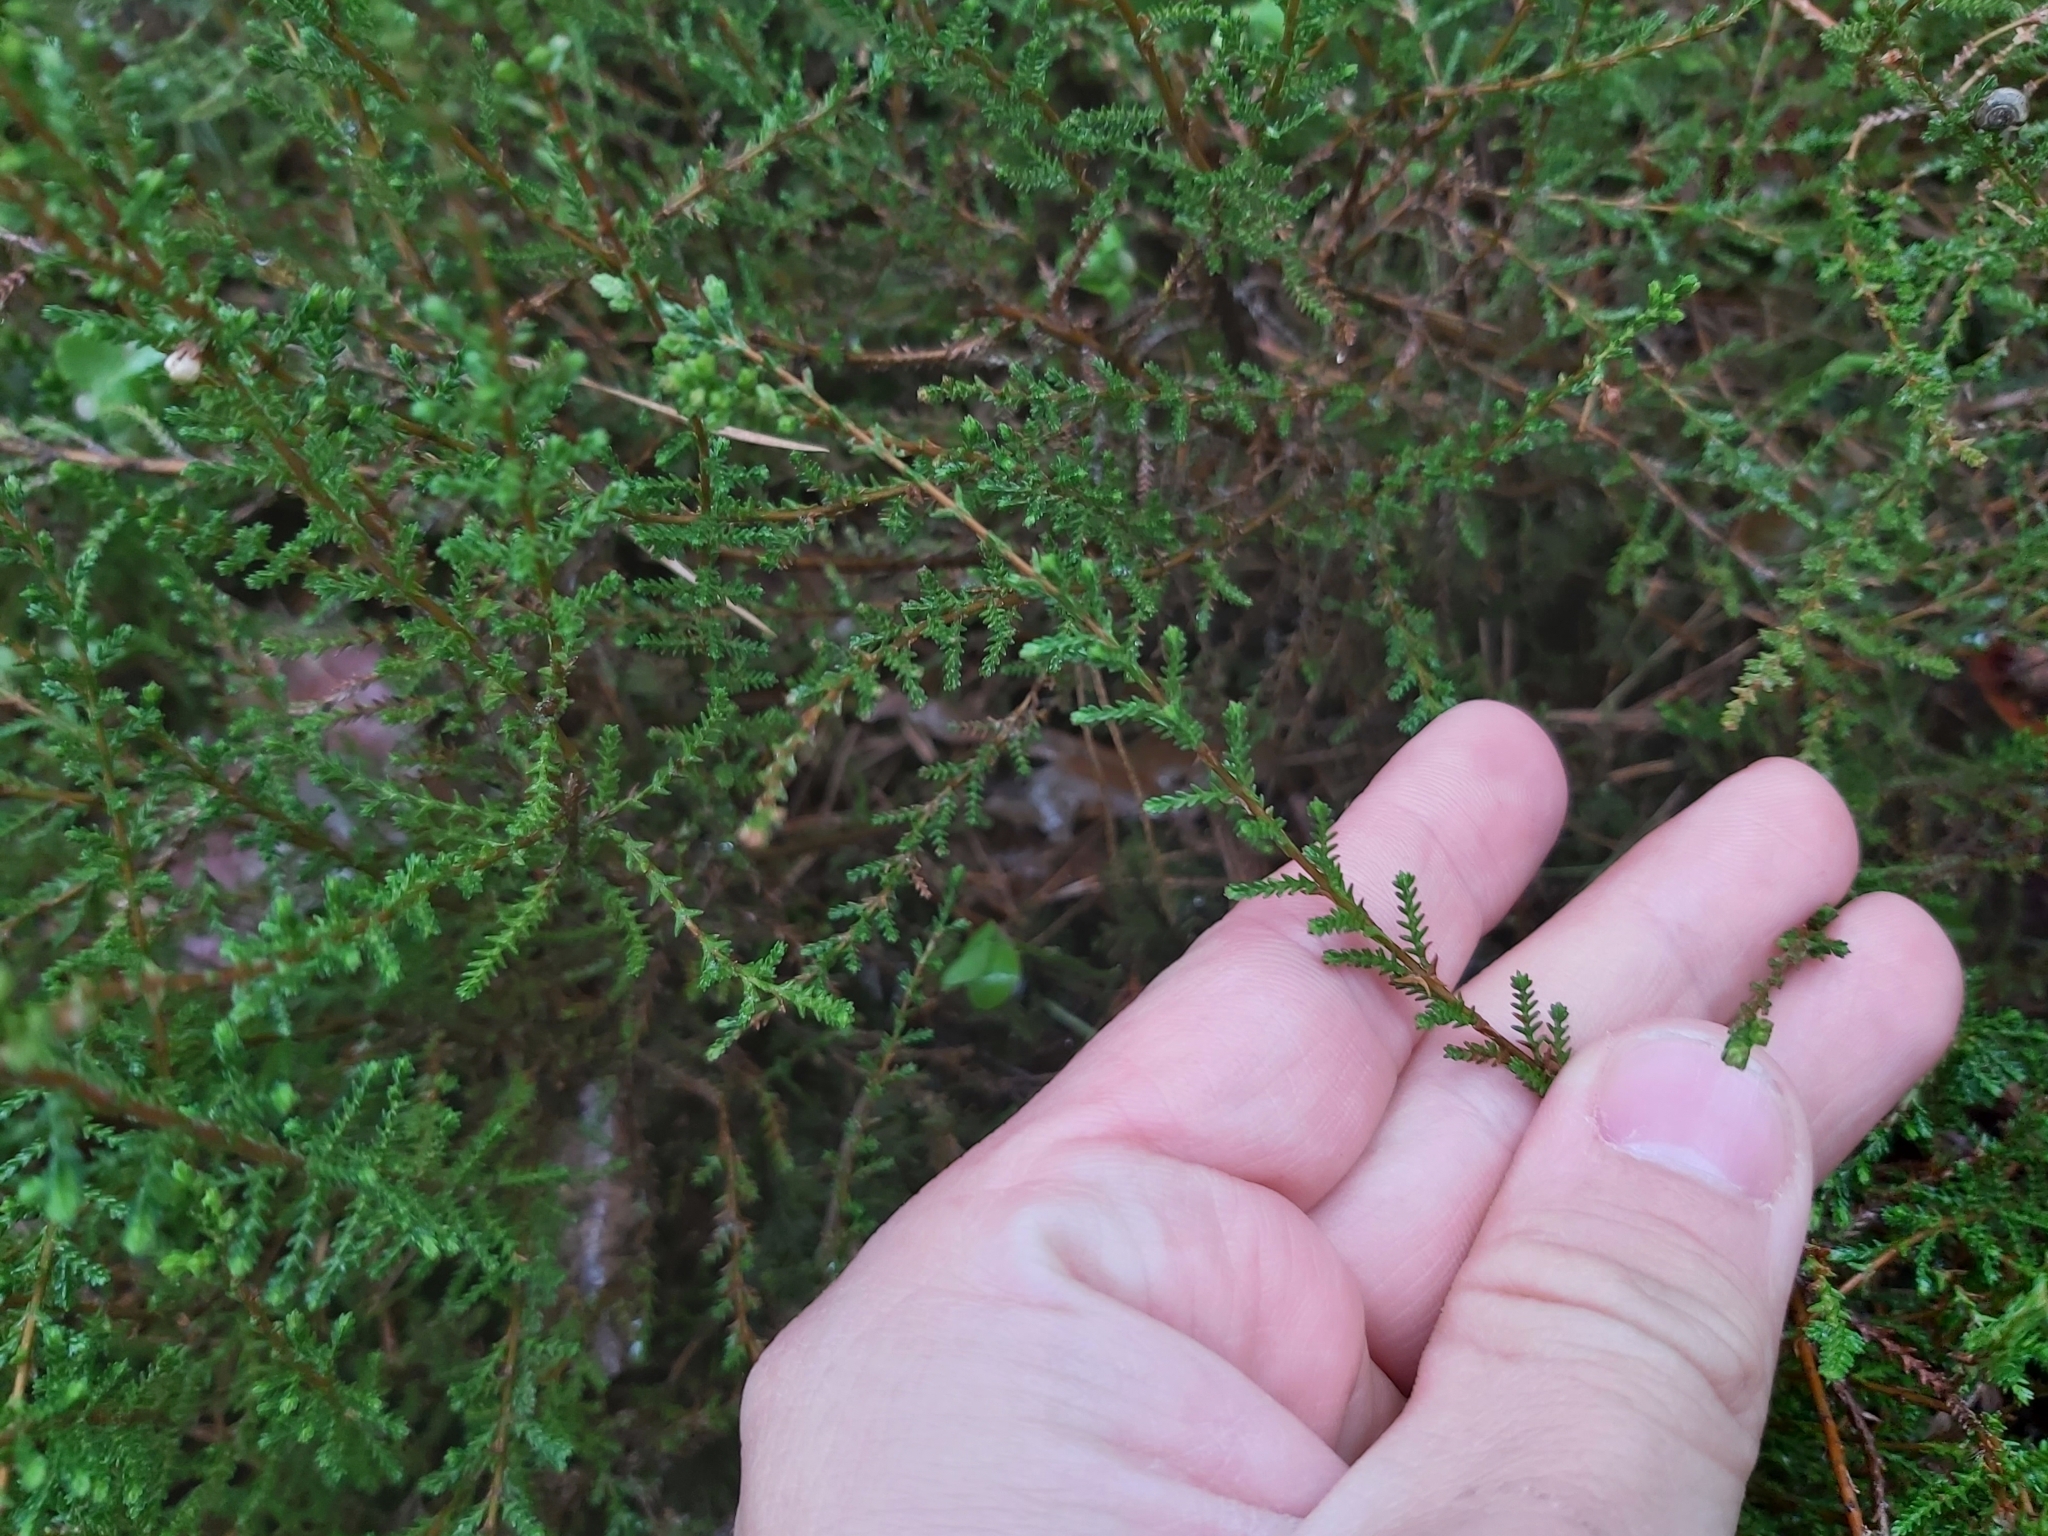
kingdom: Plantae
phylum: Tracheophyta
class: Magnoliopsida
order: Ericales
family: Ericaceae
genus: Calluna
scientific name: Calluna vulgaris
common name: Heather
